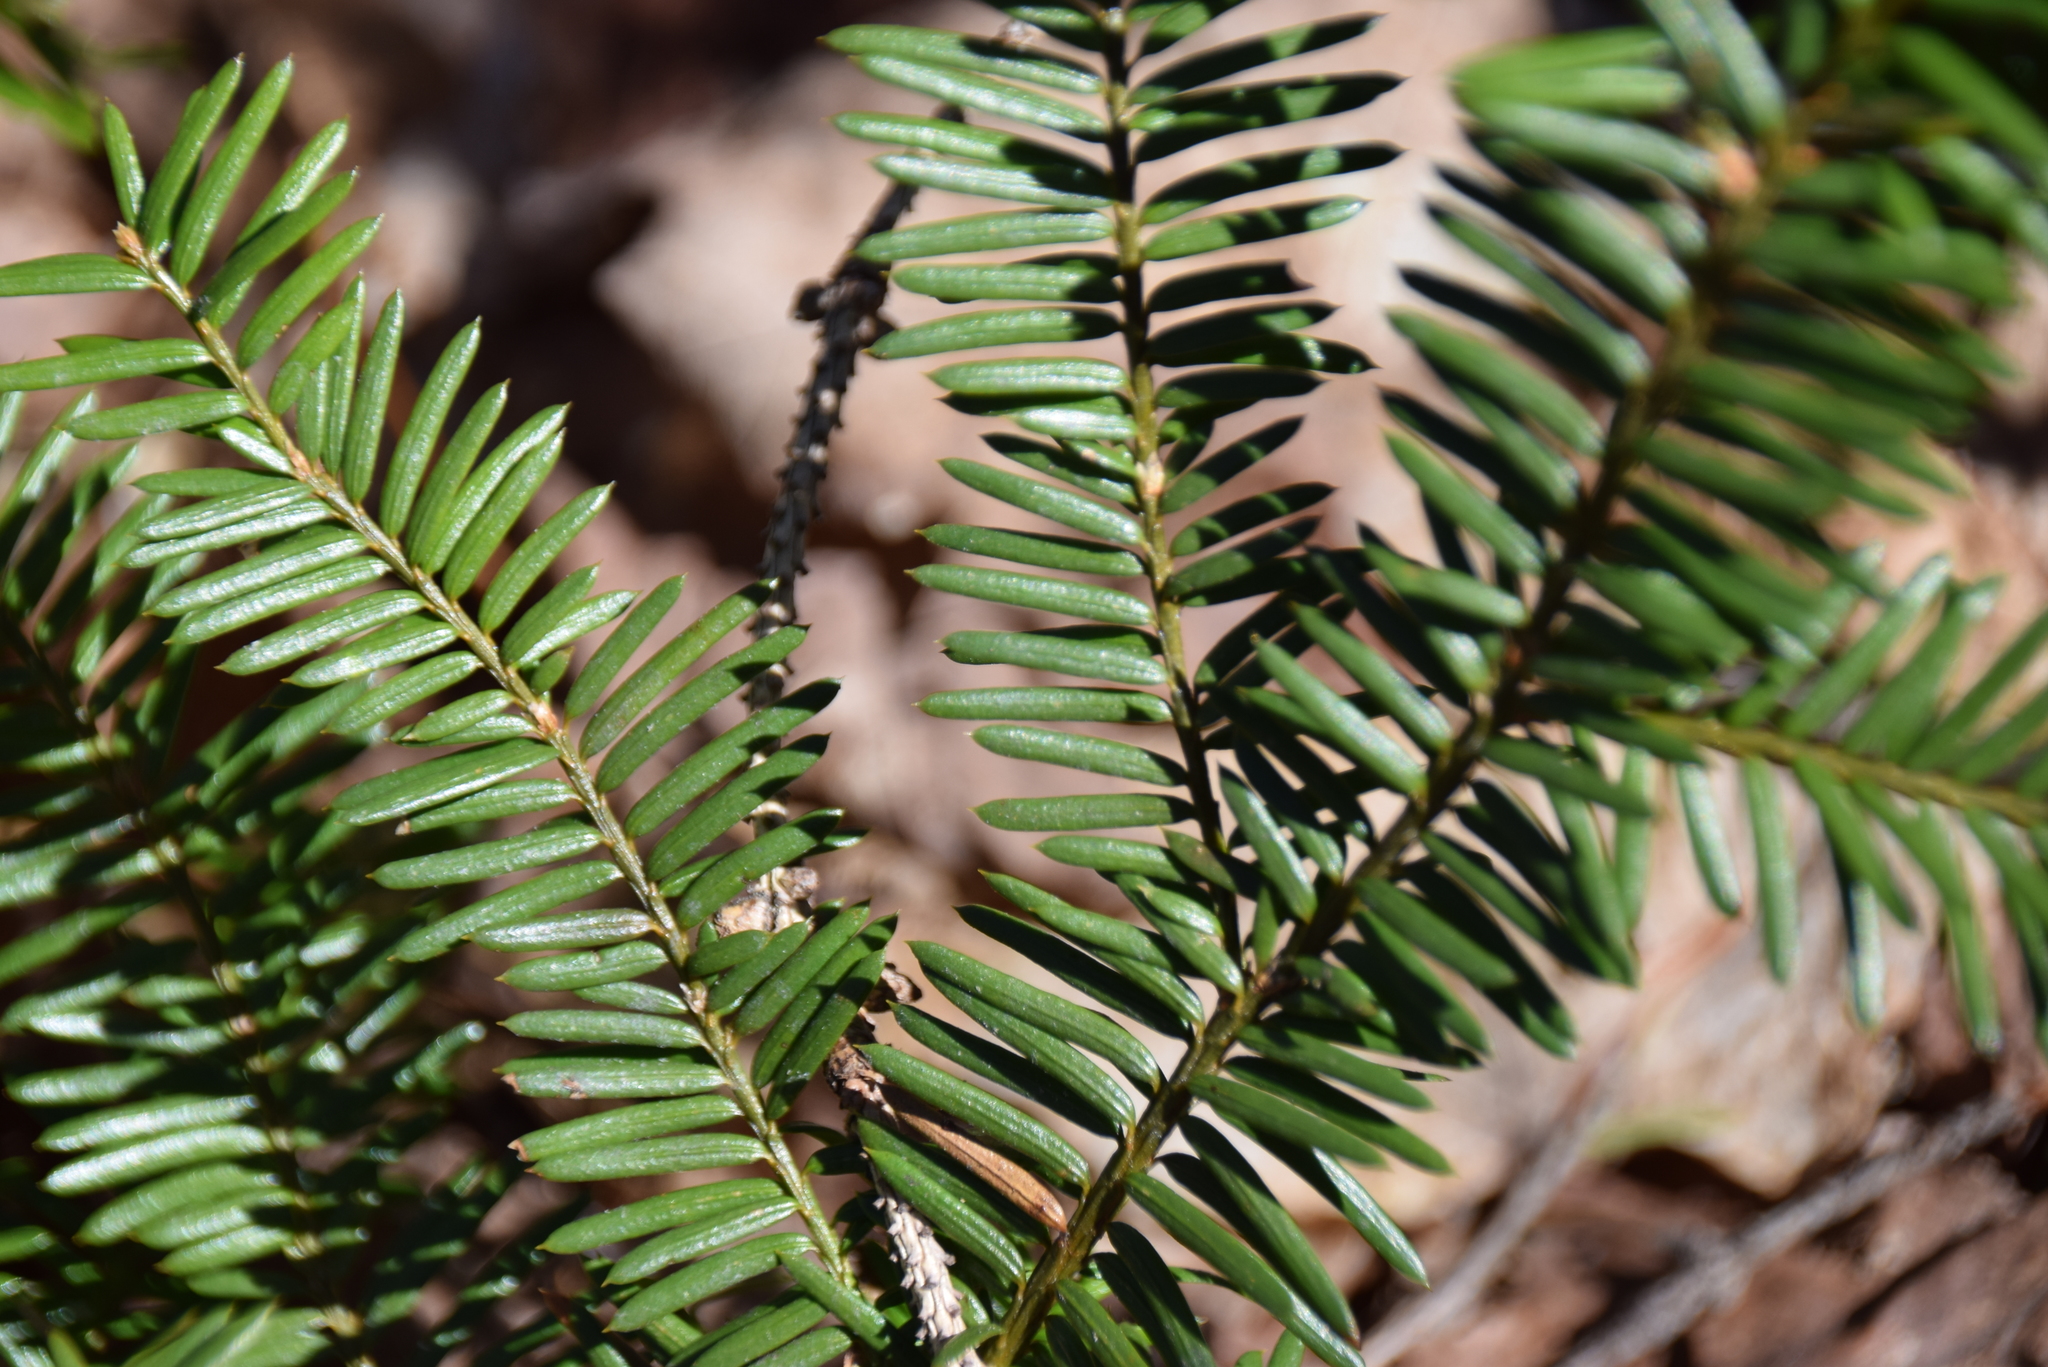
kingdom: Plantae
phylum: Tracheophyta
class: Pinopsida
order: Pinales
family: Taxaceae
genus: Taxus
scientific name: Taxus canadensis
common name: American yew
